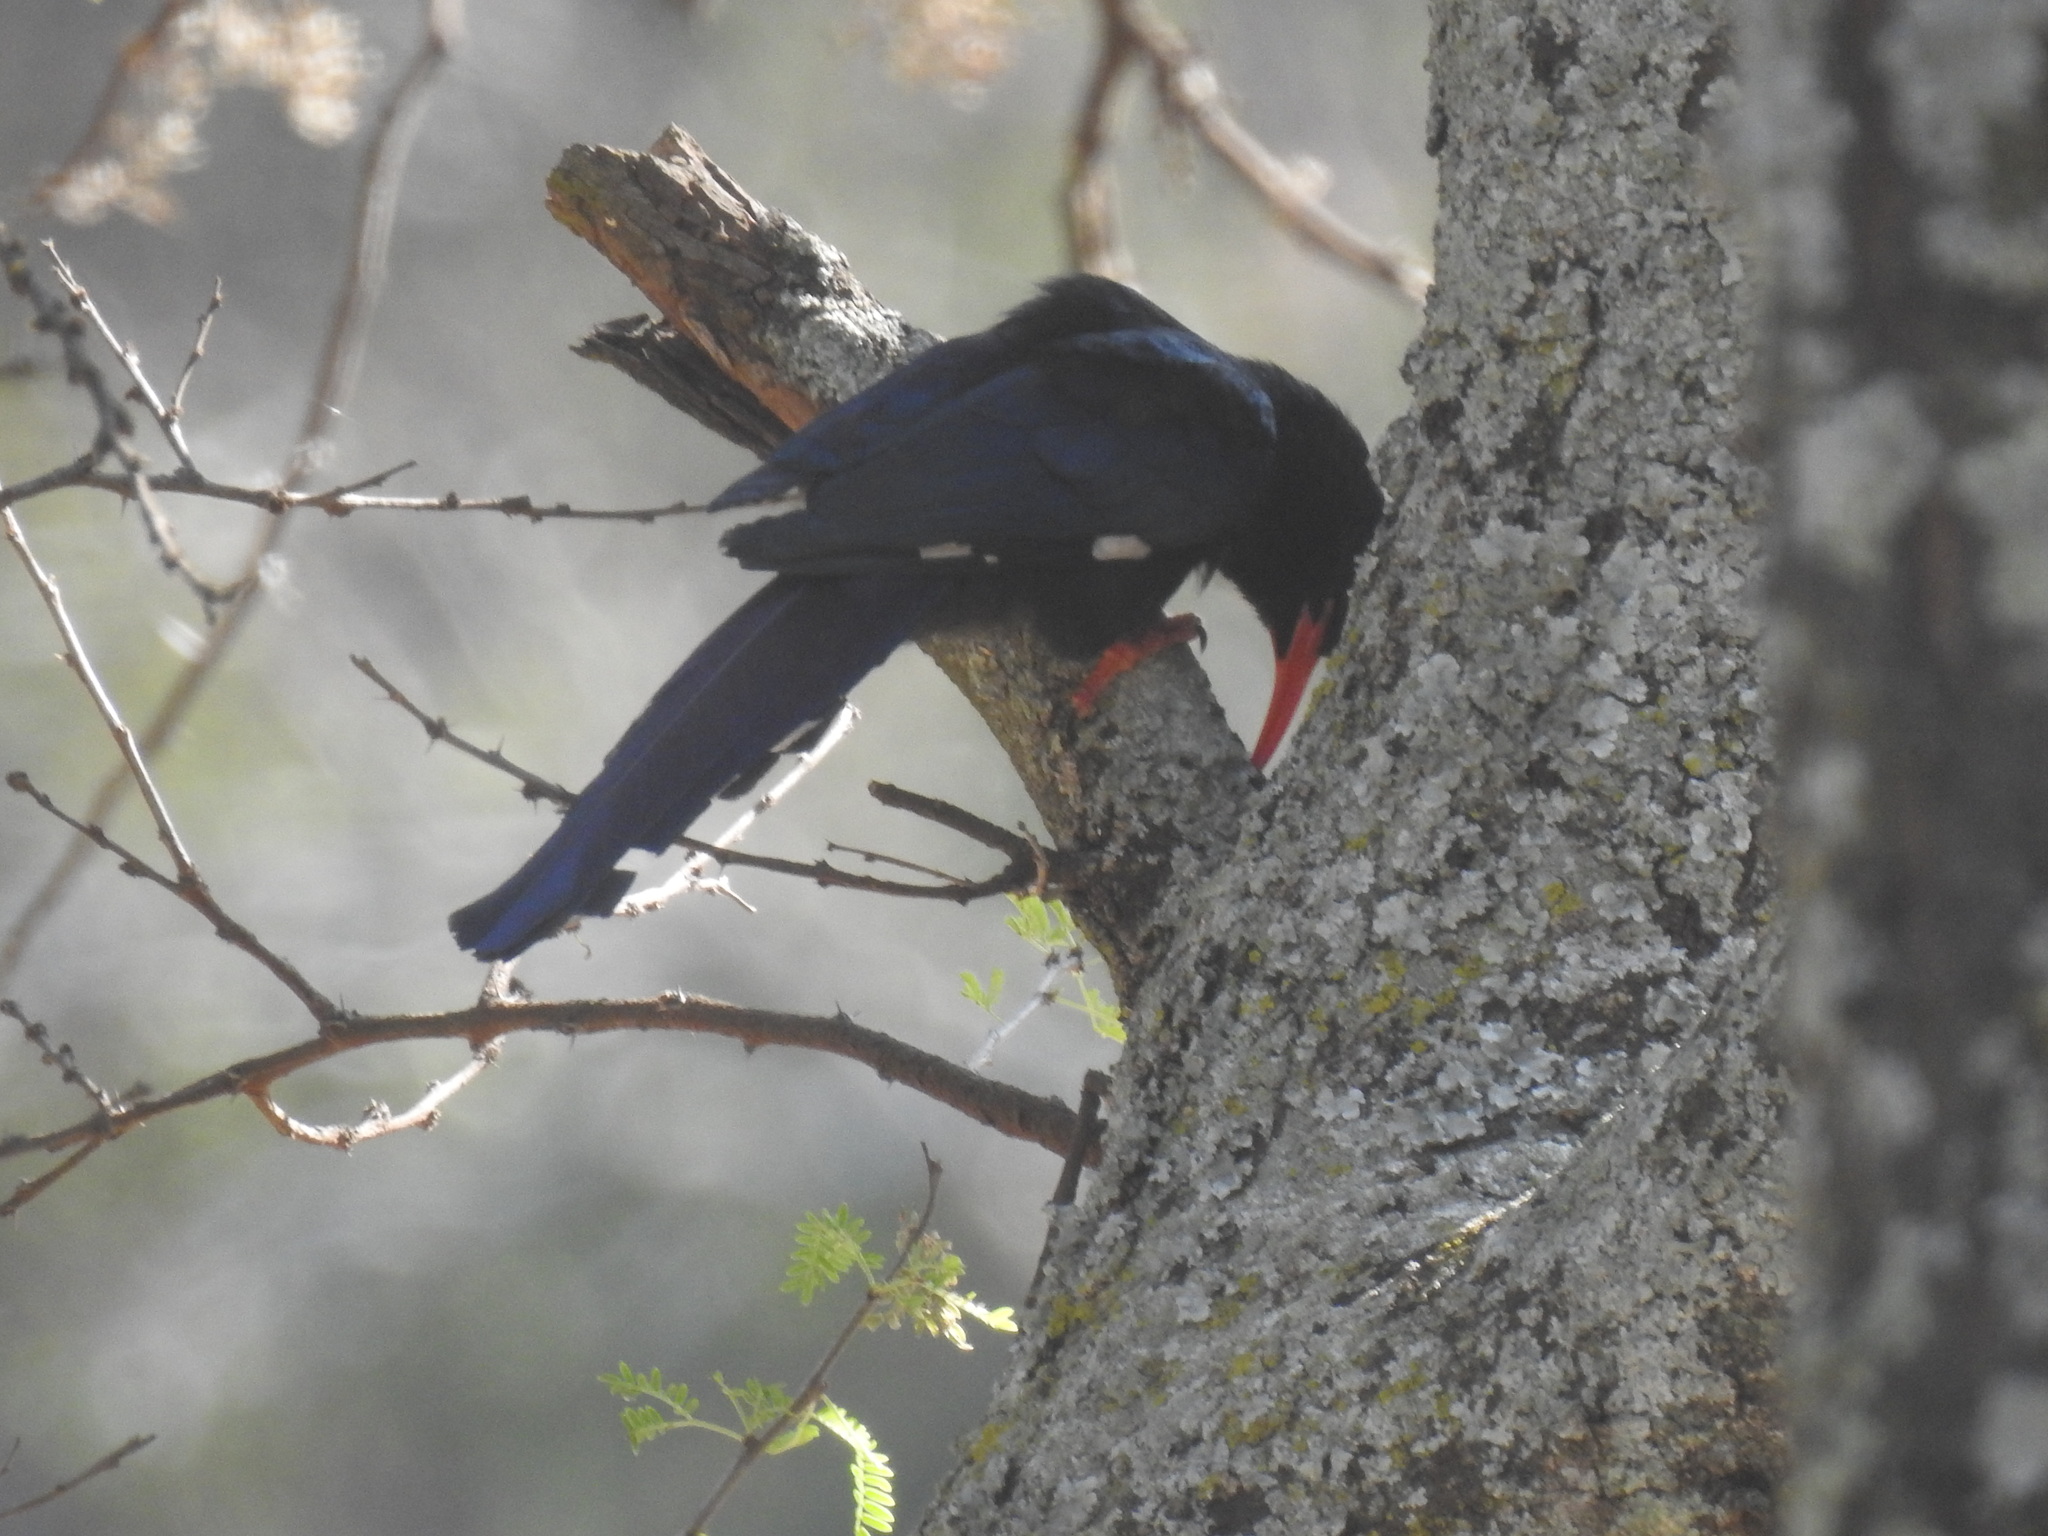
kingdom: Animalia
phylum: Chordata
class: Aves
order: Bucerotiformes
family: Phoeniculidae
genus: Phoeniculus
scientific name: Phoeniculus purpureus
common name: Green woodhoopoe
